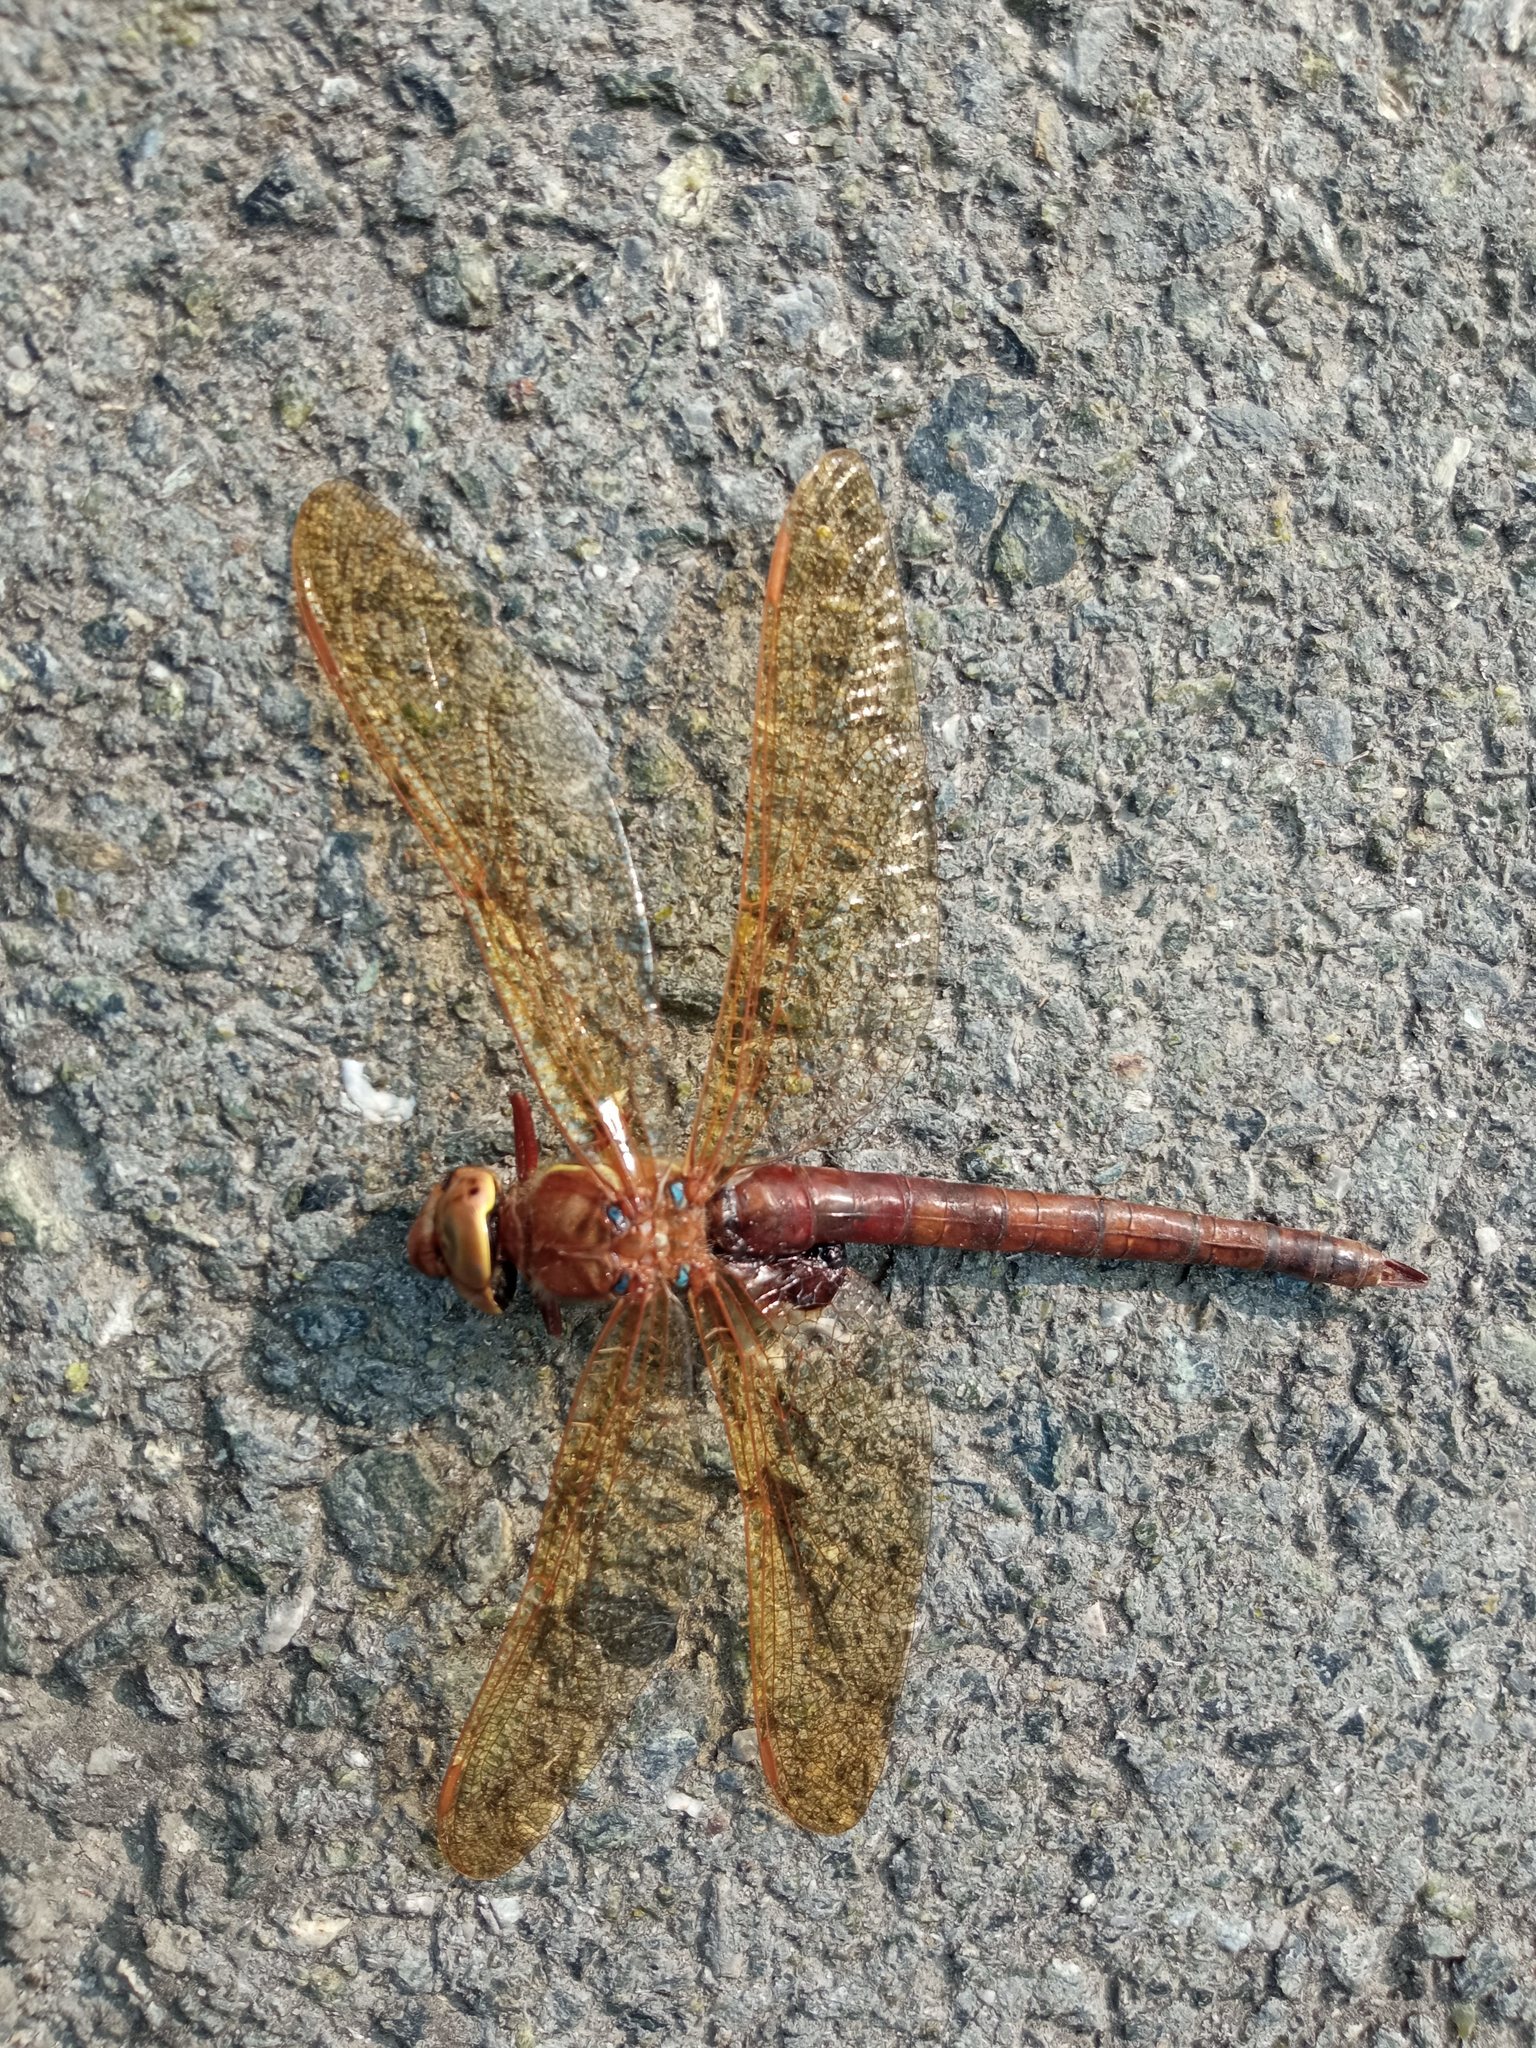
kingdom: Animalia
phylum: Arthropoda
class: Insecta
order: Odonata
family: Aeshnidae
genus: Aeshna
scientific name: Aeshna grandis
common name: Brown hawker
